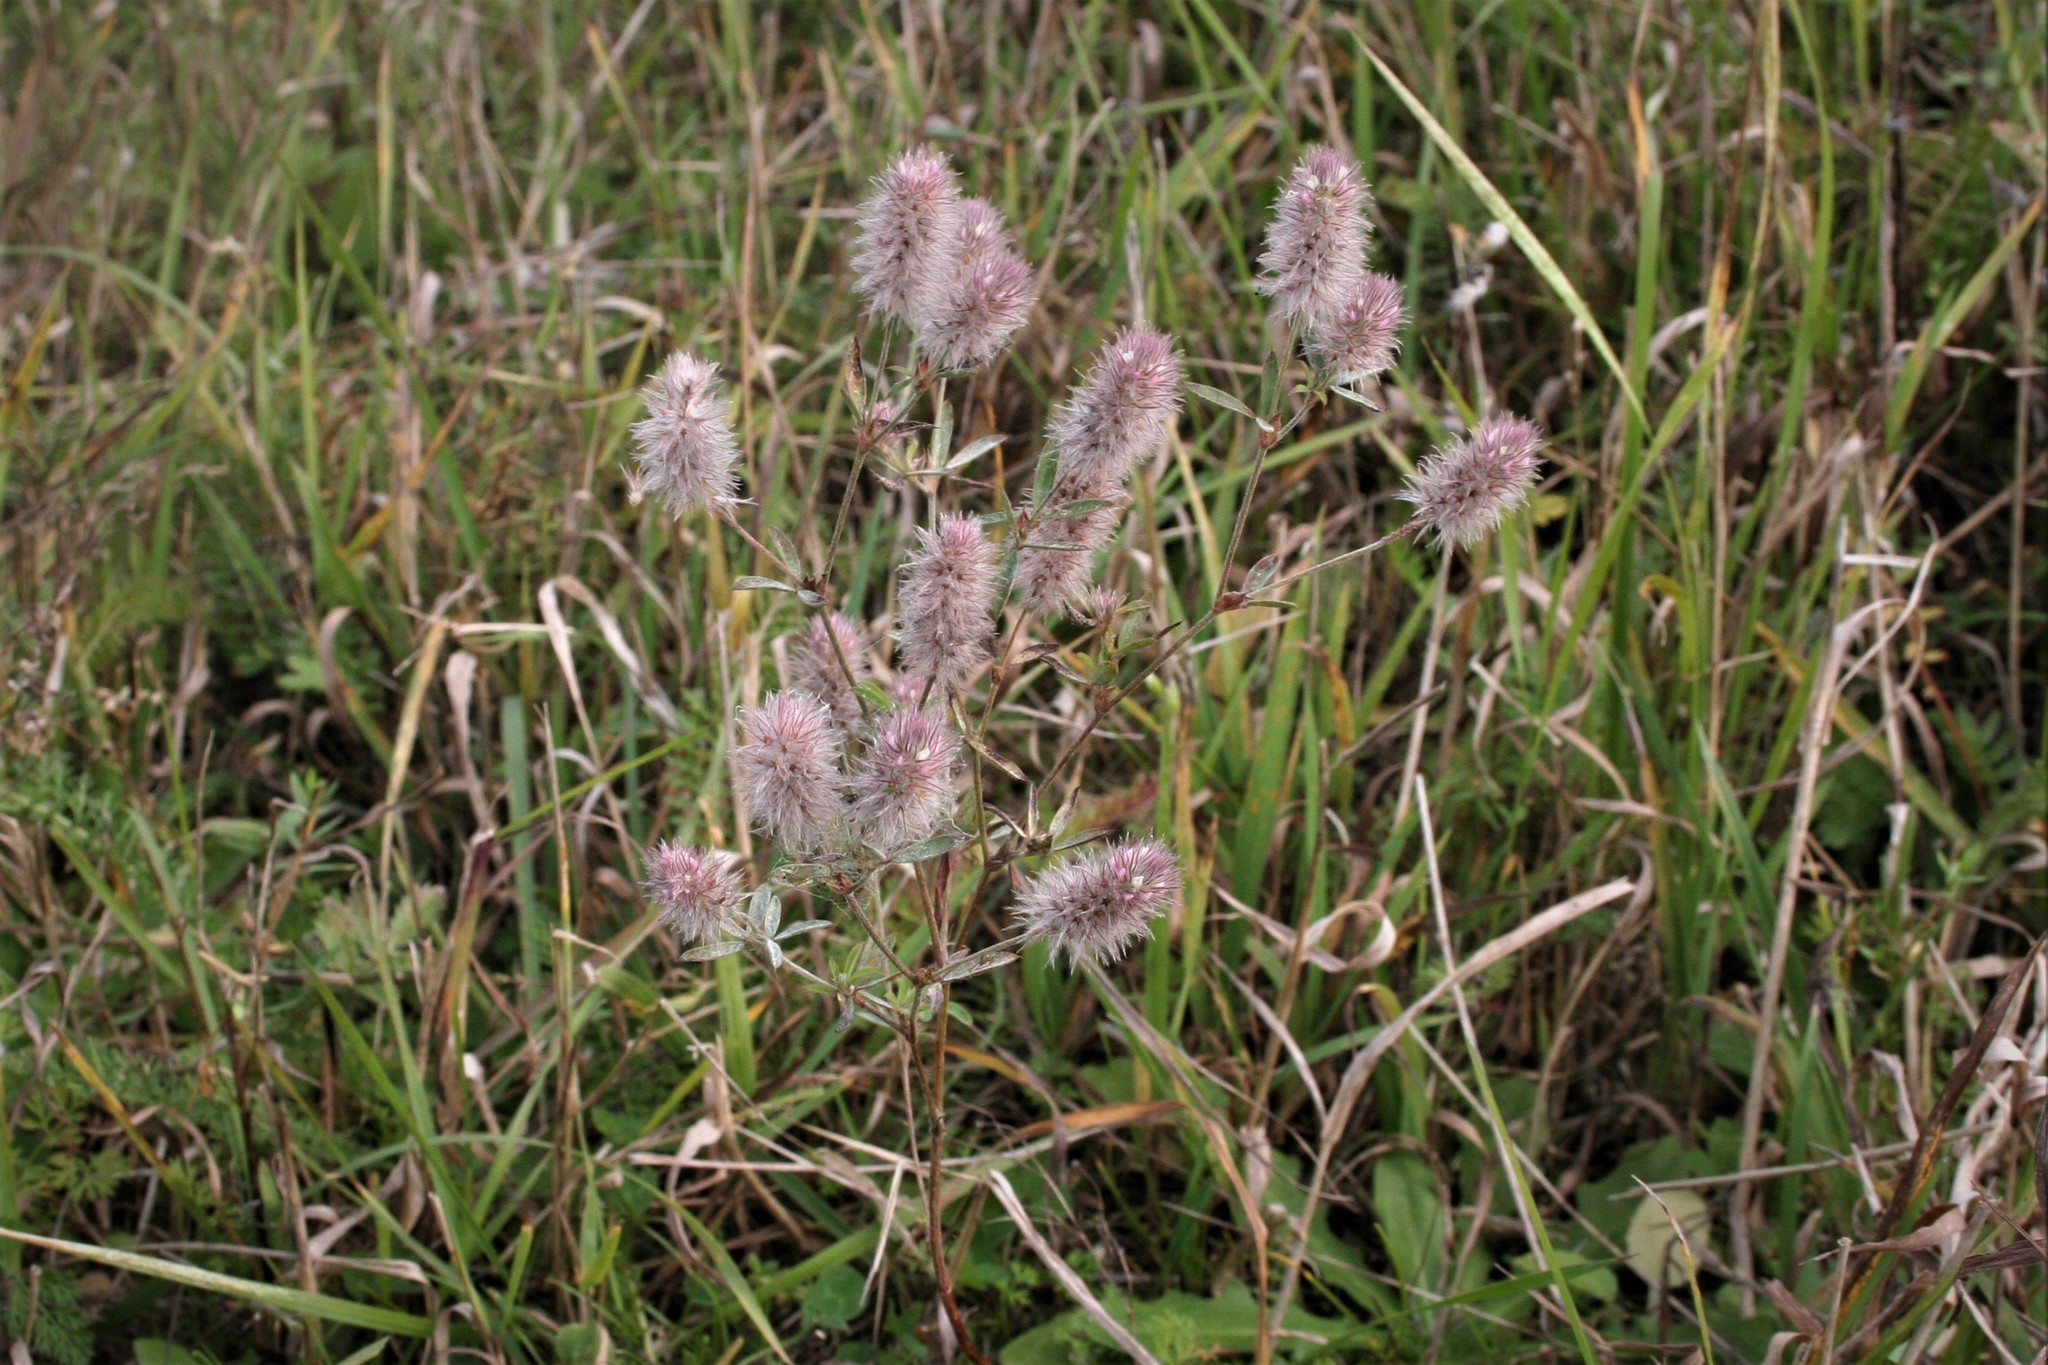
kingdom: Plantae
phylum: Tracheophyta
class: Magnoliopsida
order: Fabales
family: Fabaceae
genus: Trifolium
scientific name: Trifolium arvense
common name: Hare's-foot clover
